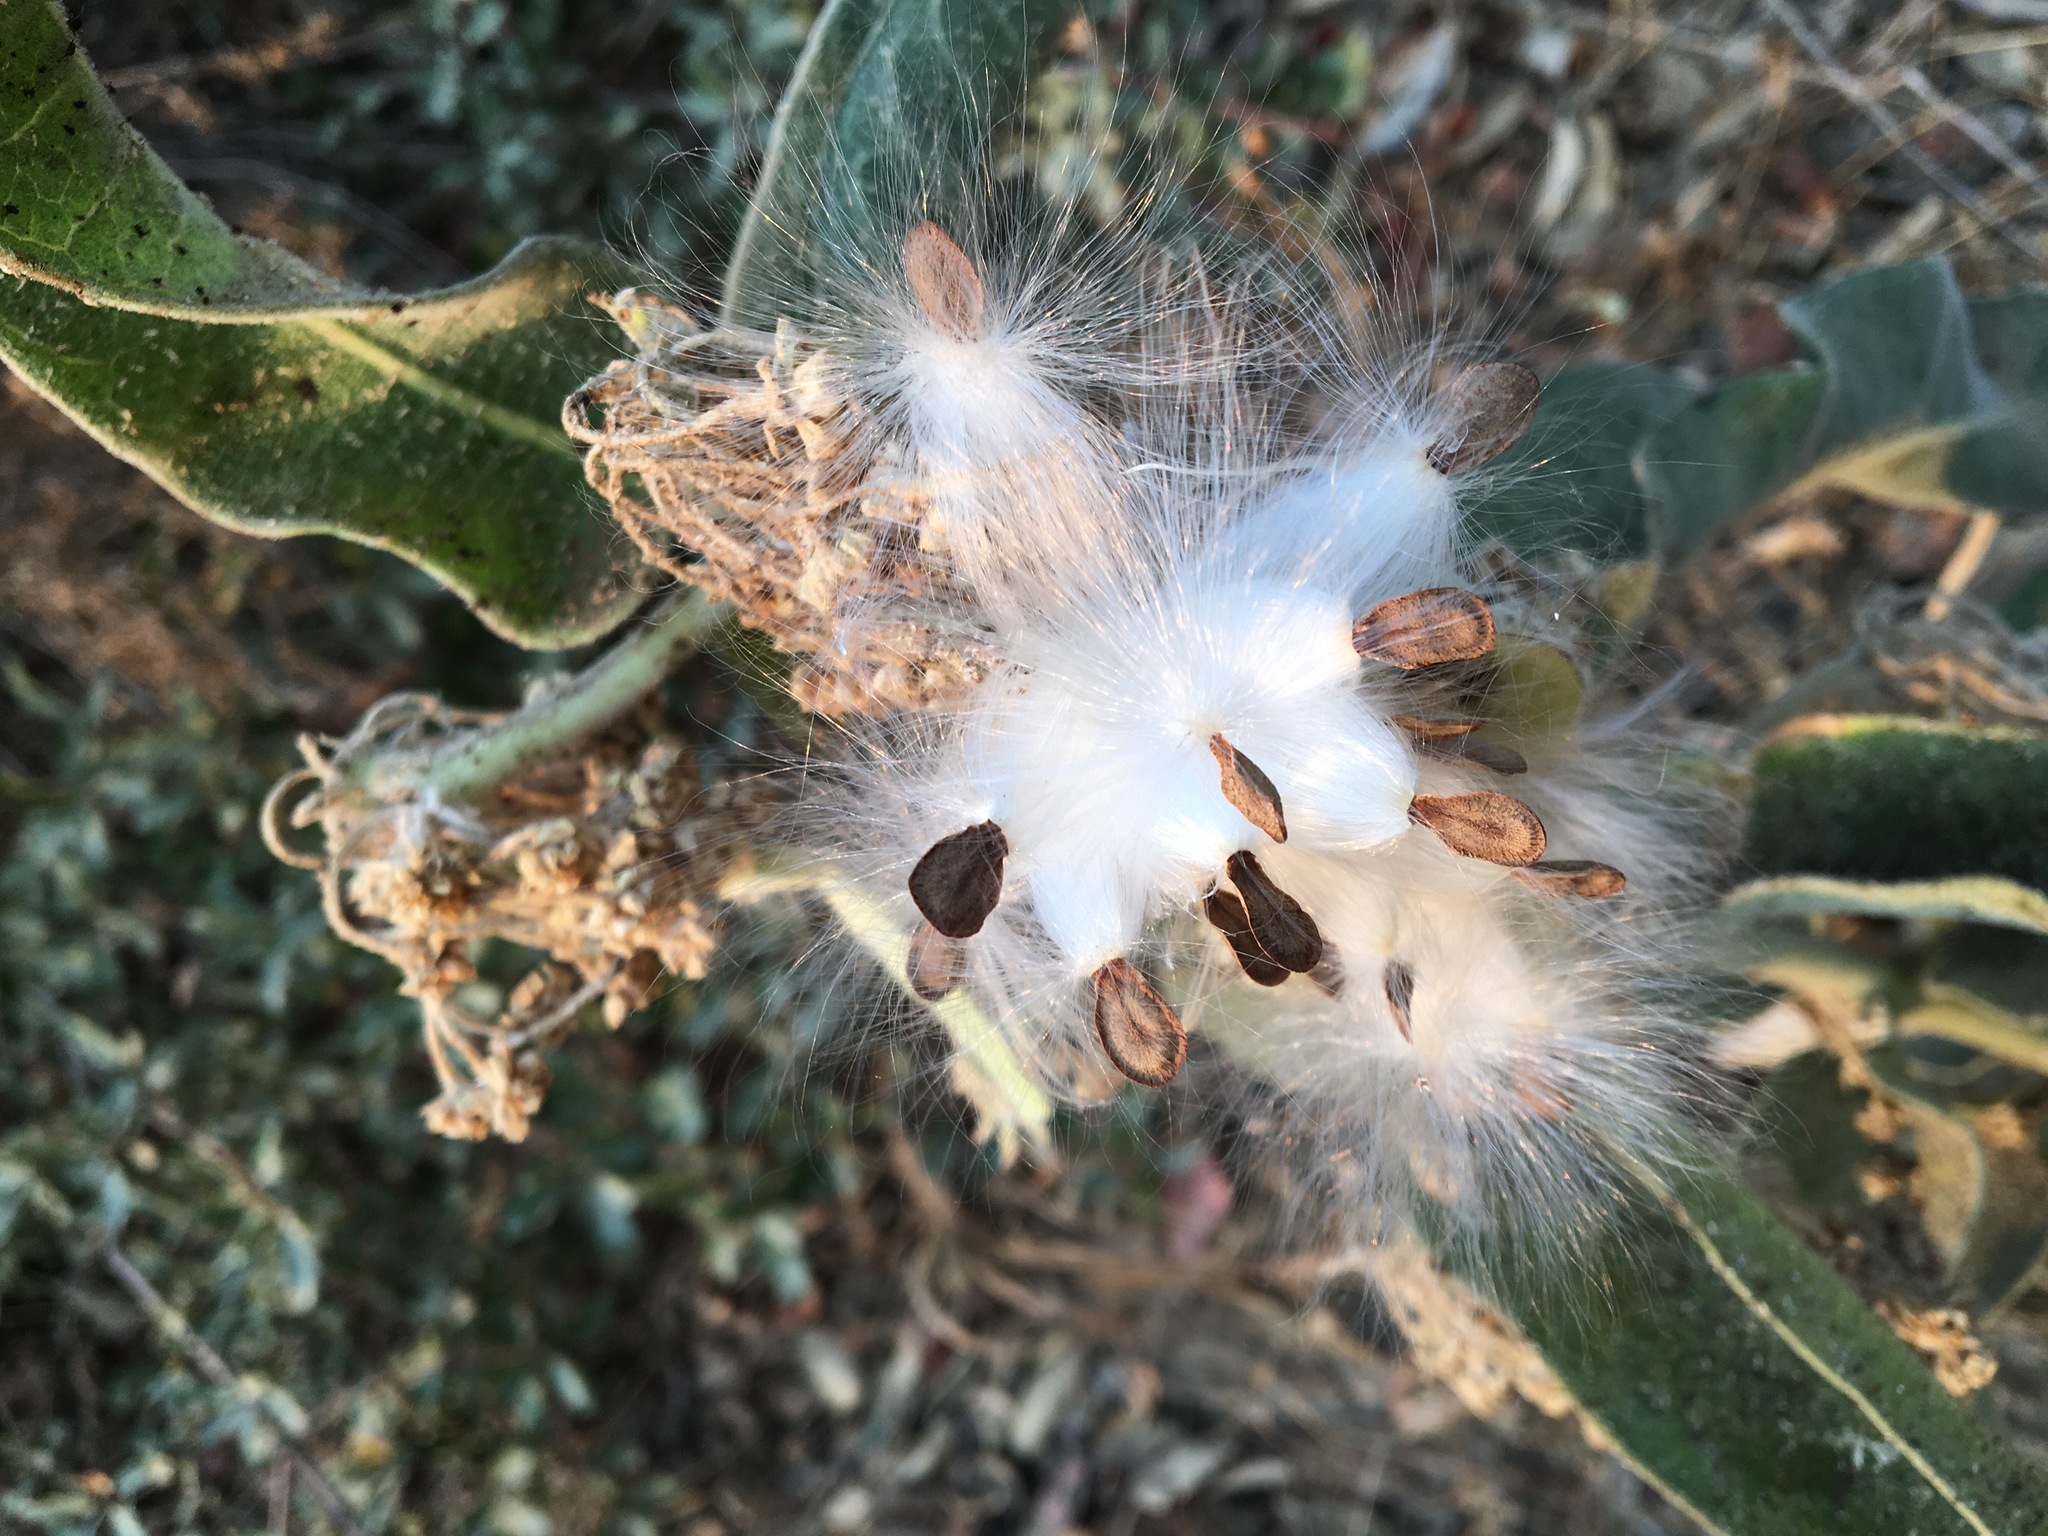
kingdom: Plantae
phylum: Tracheophyta
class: Magnoliopsida
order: Gentianales
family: Apocynaceae
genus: Asclepias
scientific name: Asclepias eriocarpa
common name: Indian milkweed
